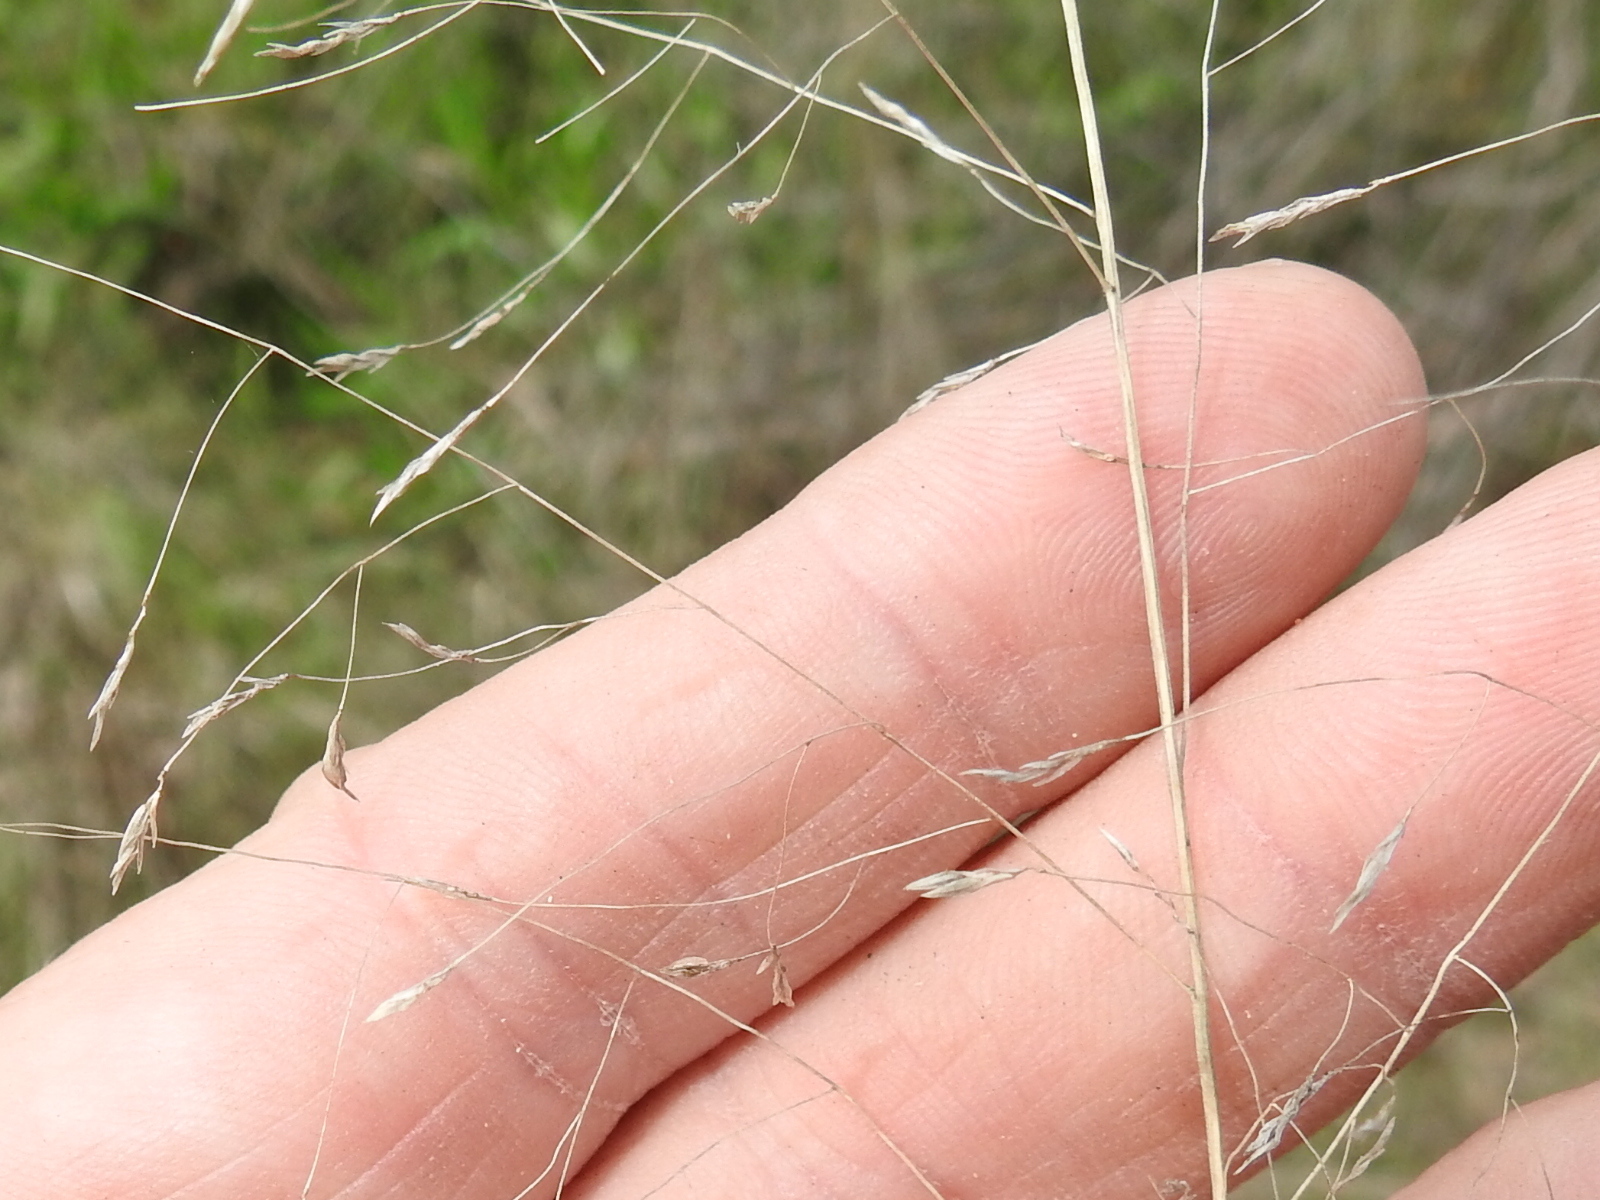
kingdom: Plantae
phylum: Tracheophyta
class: Liliopsida
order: Poales
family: Poaceae
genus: Tridens
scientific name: Tridens flavus
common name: Purpletop
